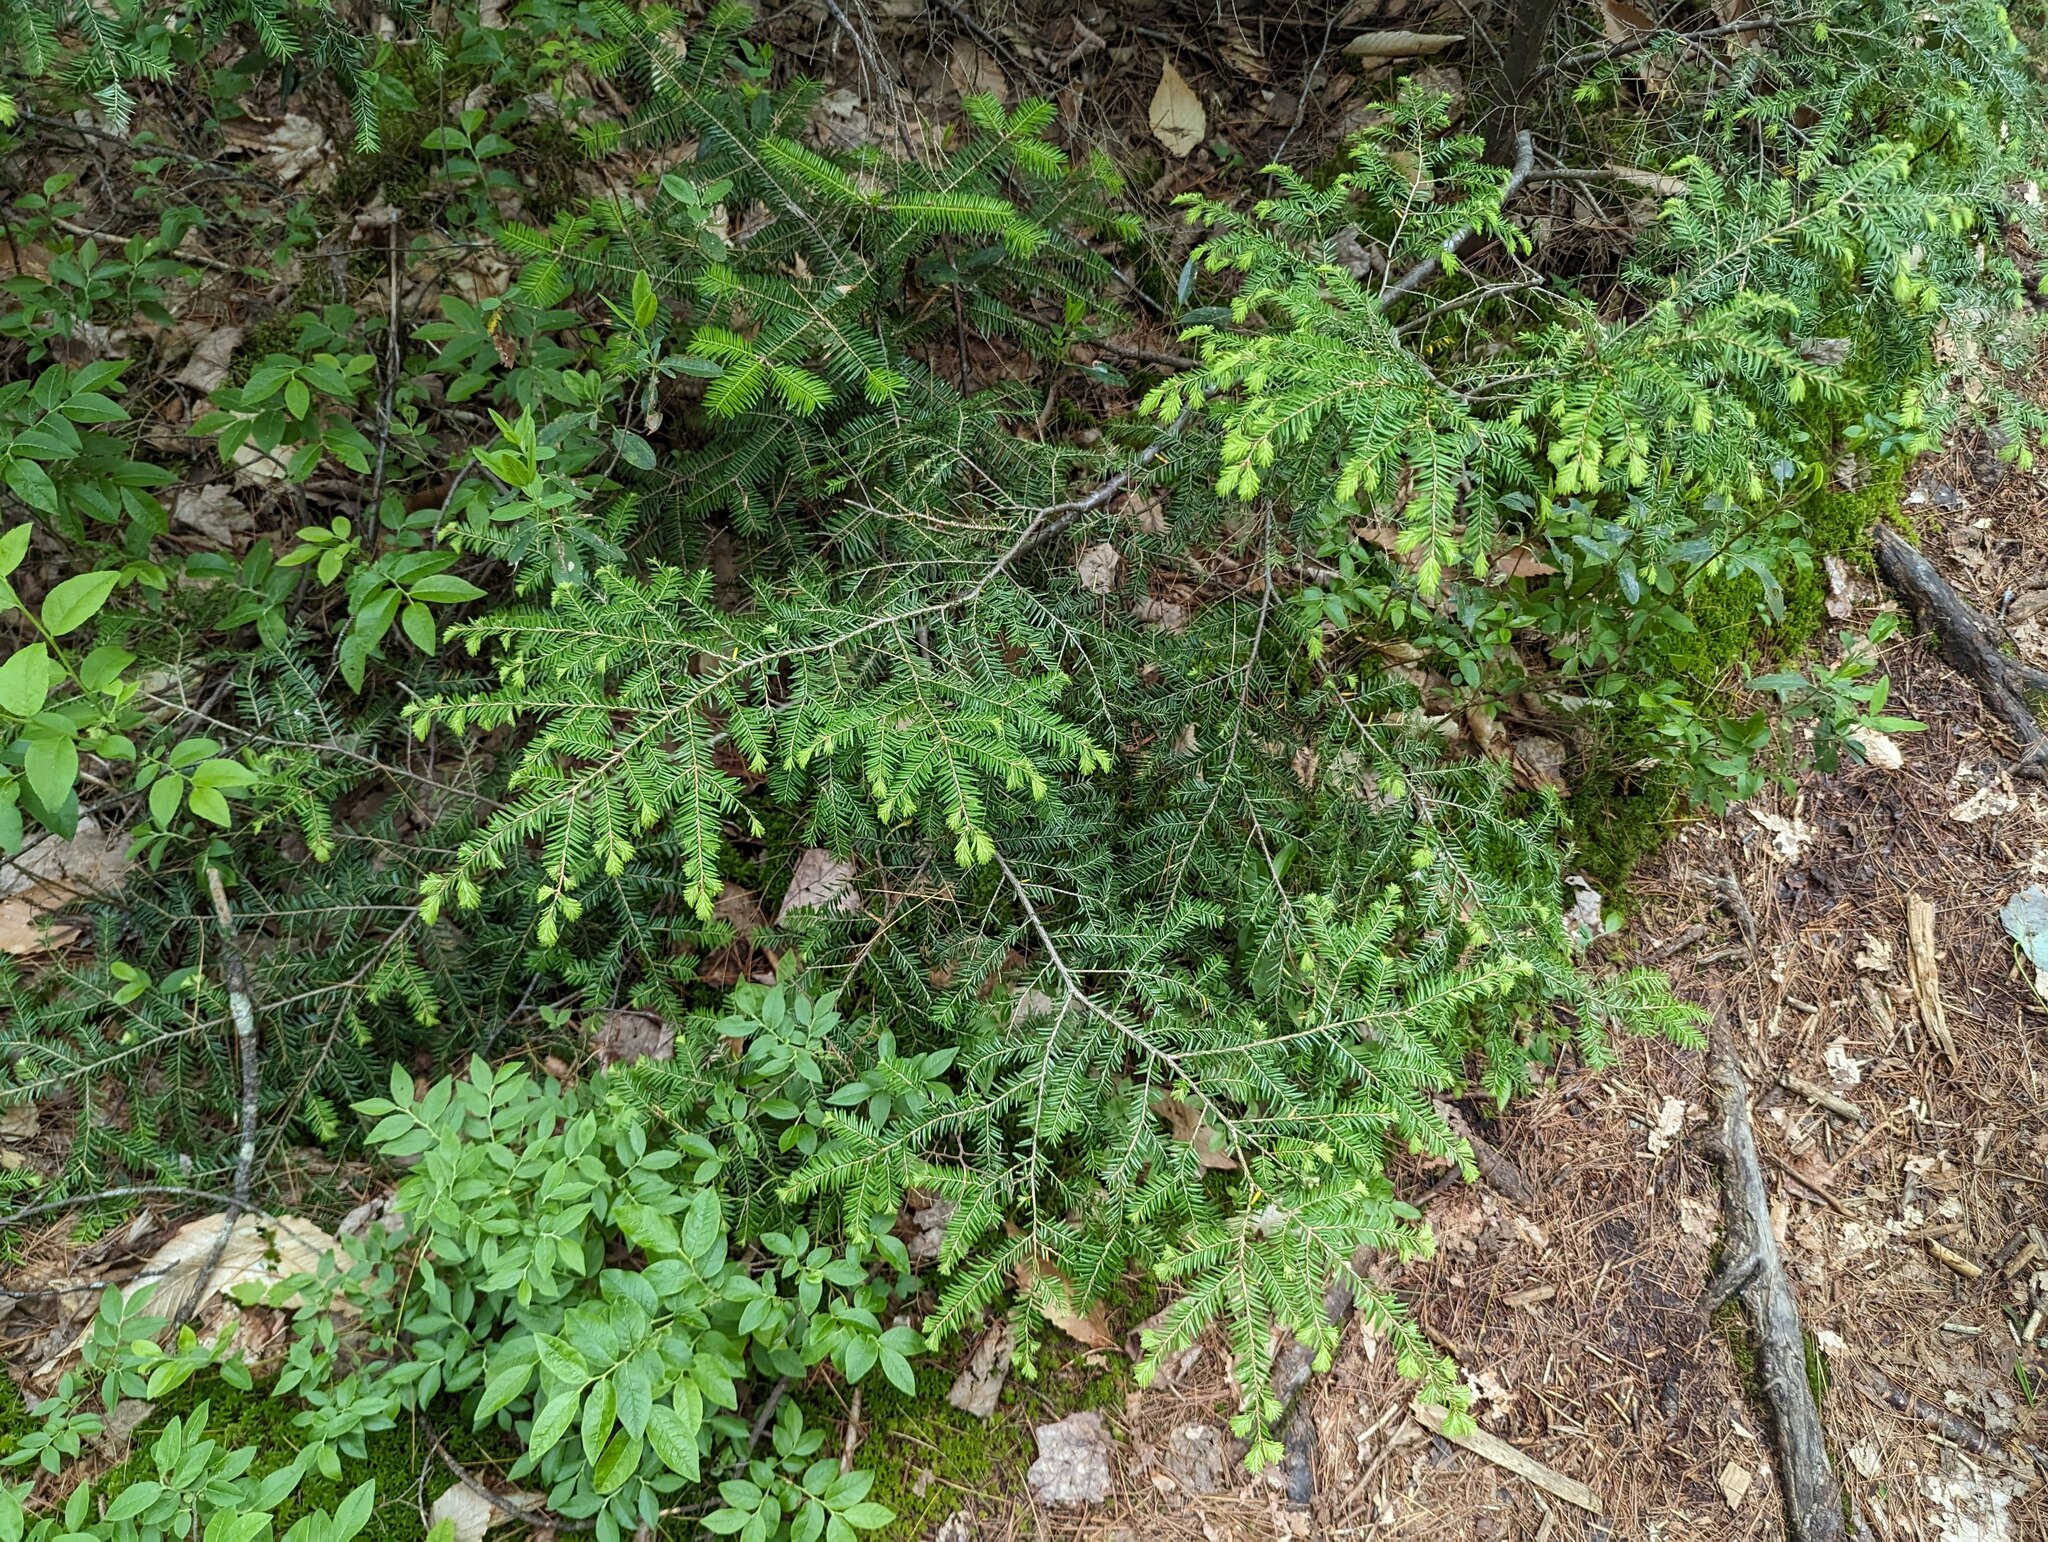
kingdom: Plantae
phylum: Tracheophyta
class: Pinopsida
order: Pinales
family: Pinaceae
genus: Tsuga
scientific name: Tsuga canadensis
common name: Eastern hemlock
